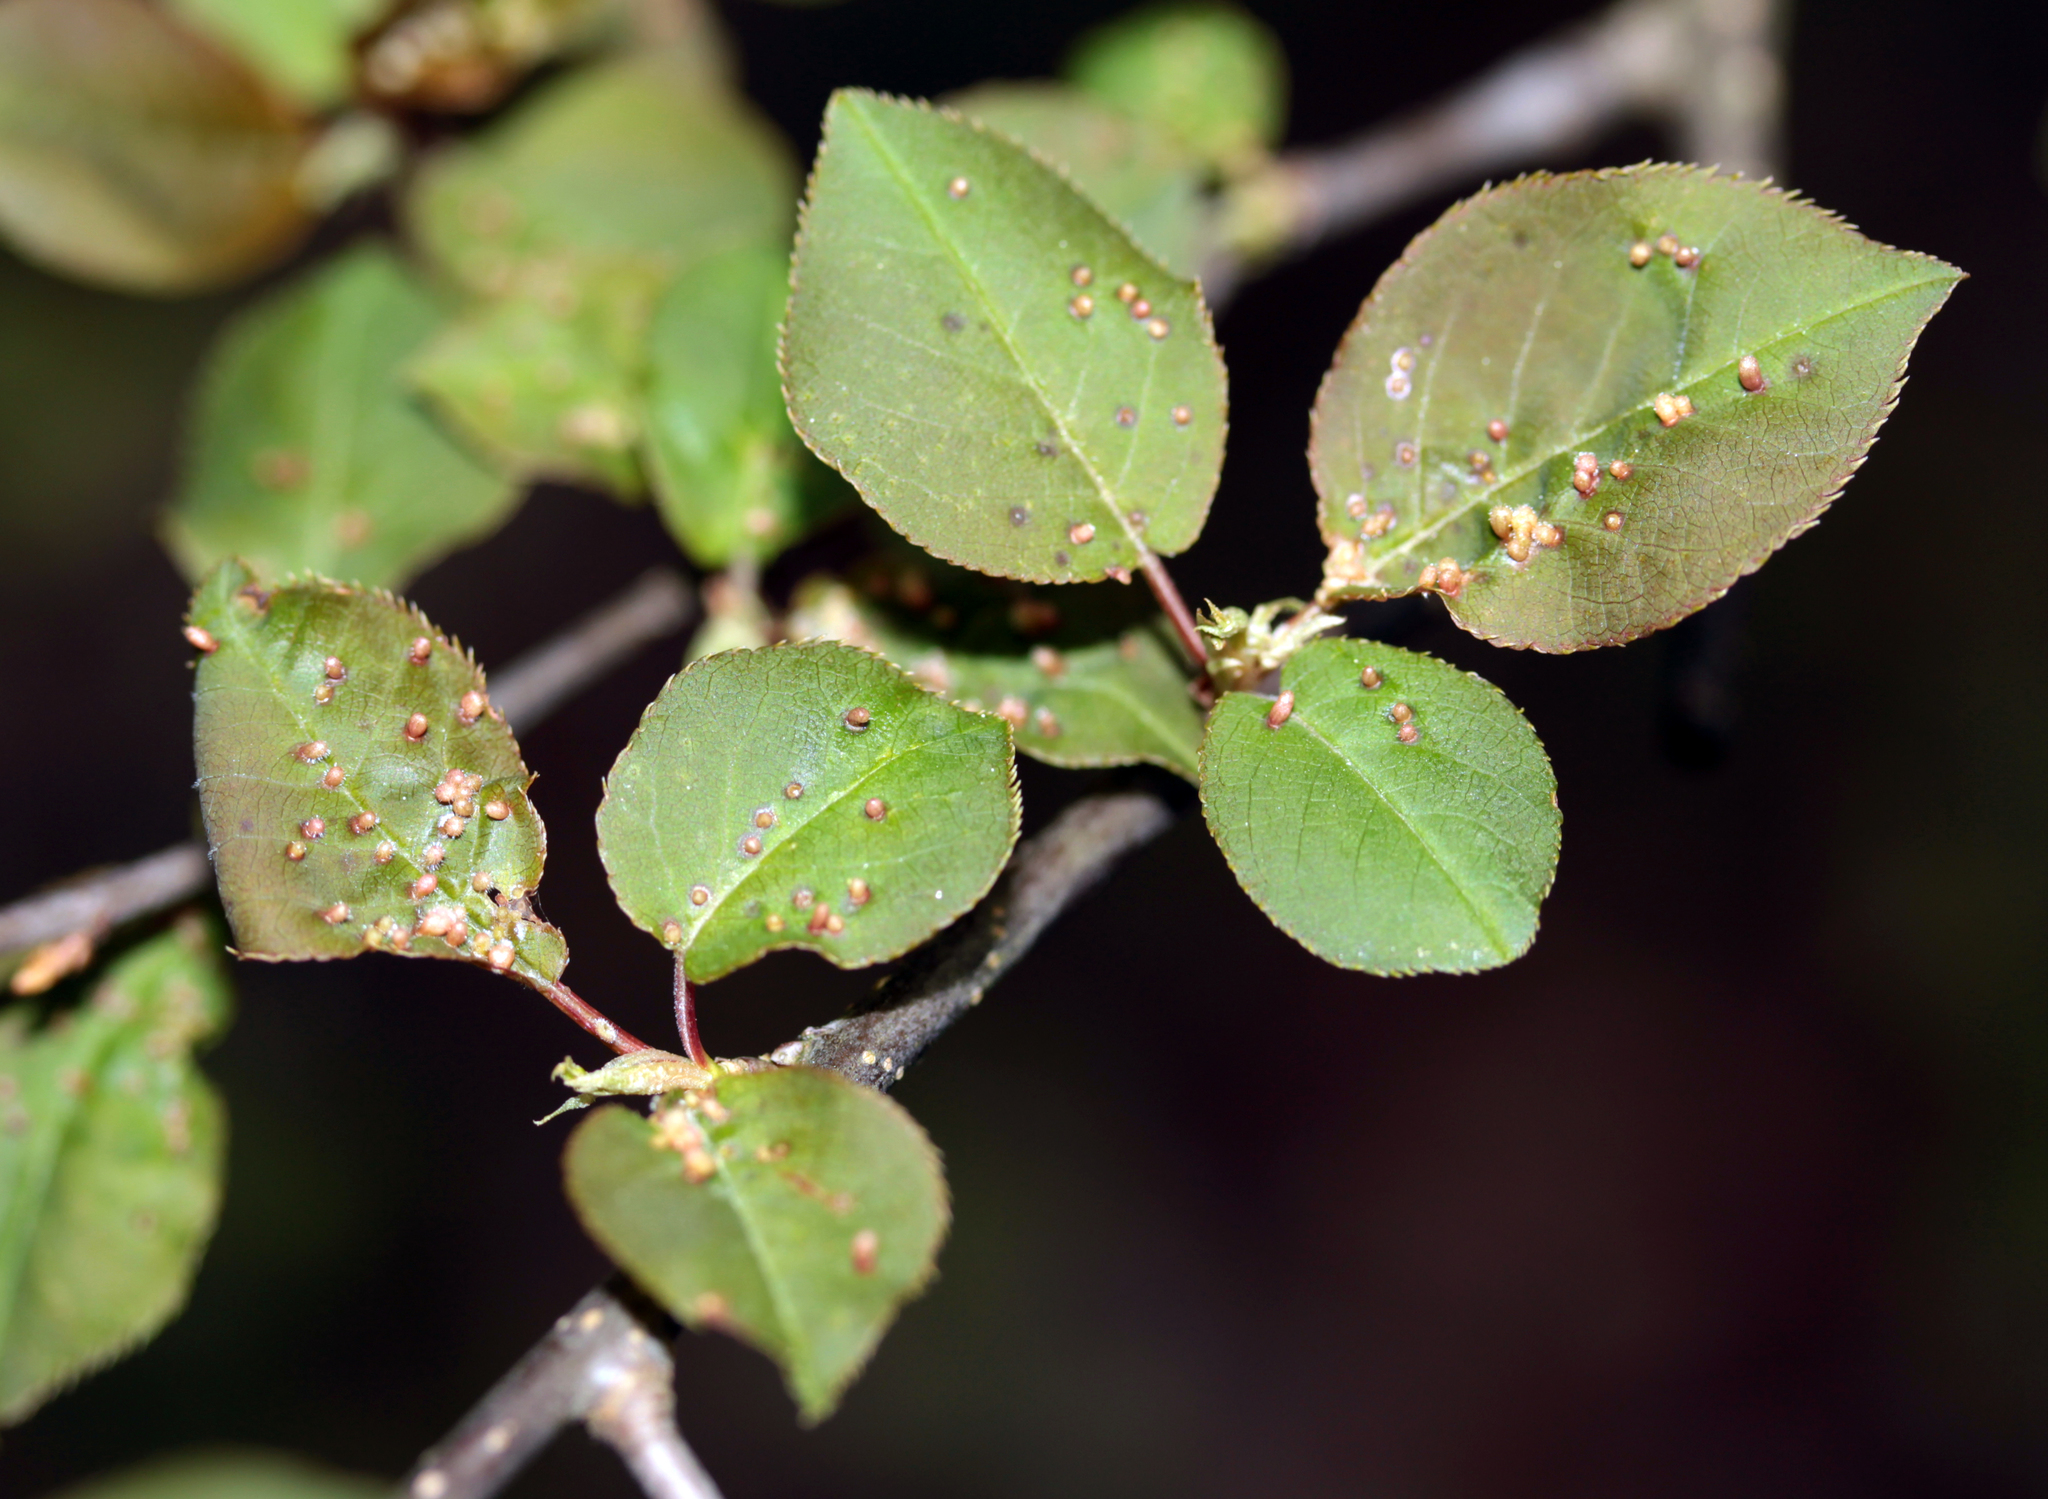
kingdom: Animalia
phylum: Arthropoda
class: Arachnida
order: Trombidiformes
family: Eriophyidae
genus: Eriophyes
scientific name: Eriophyes emarginatae
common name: Plum leaf gall mite
